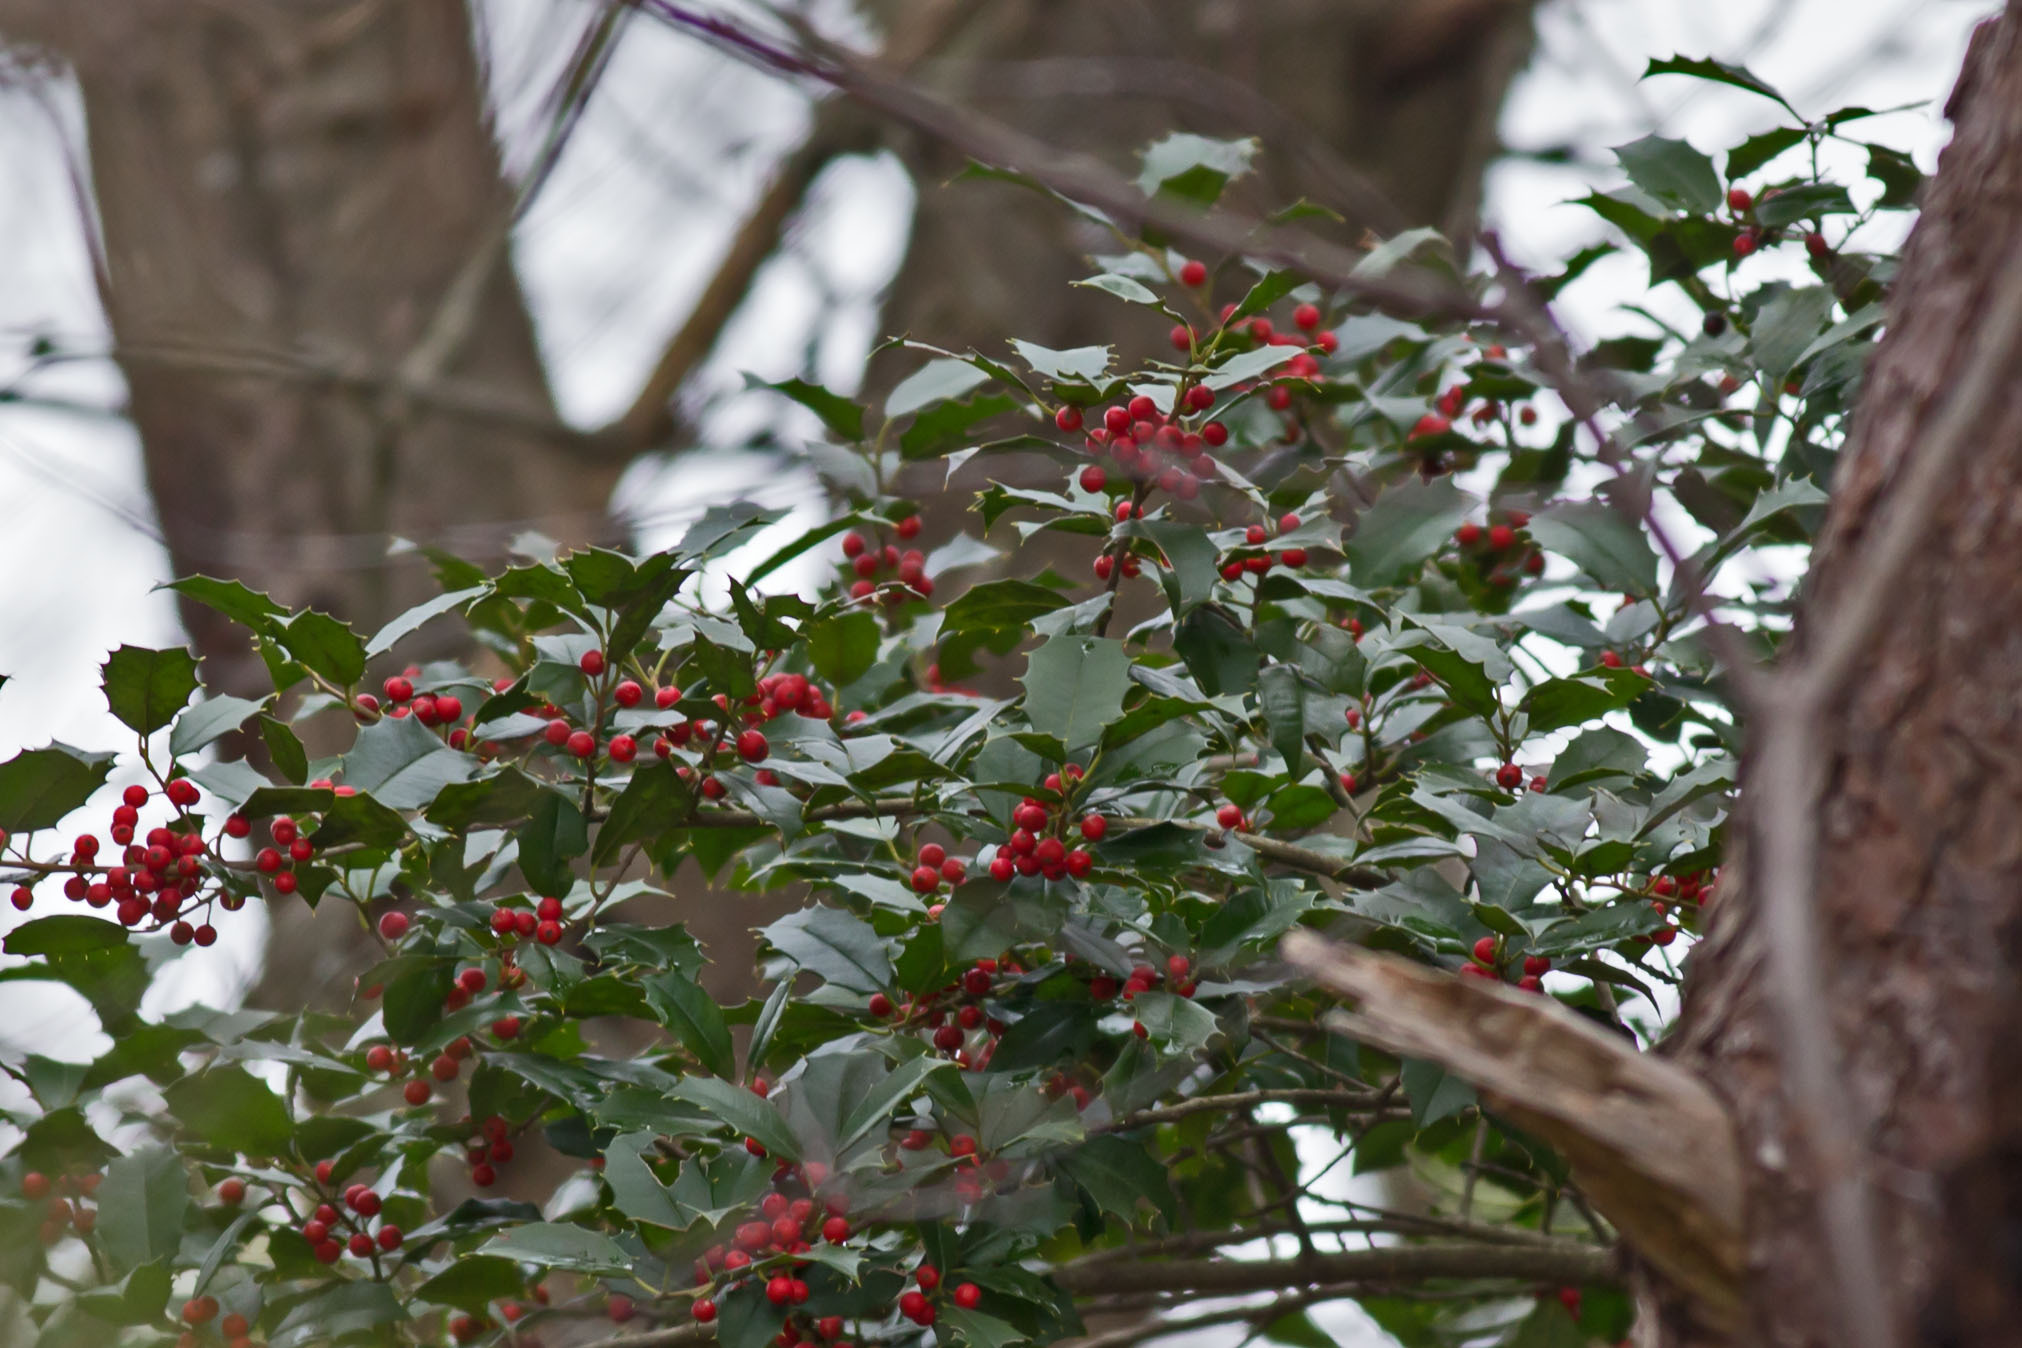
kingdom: Plantae
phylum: Tracheophyta
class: Magnoliopsida
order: Aquifoliales
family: Aquifoliaceae
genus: Ilex
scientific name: Ilex opaca
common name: American holly
